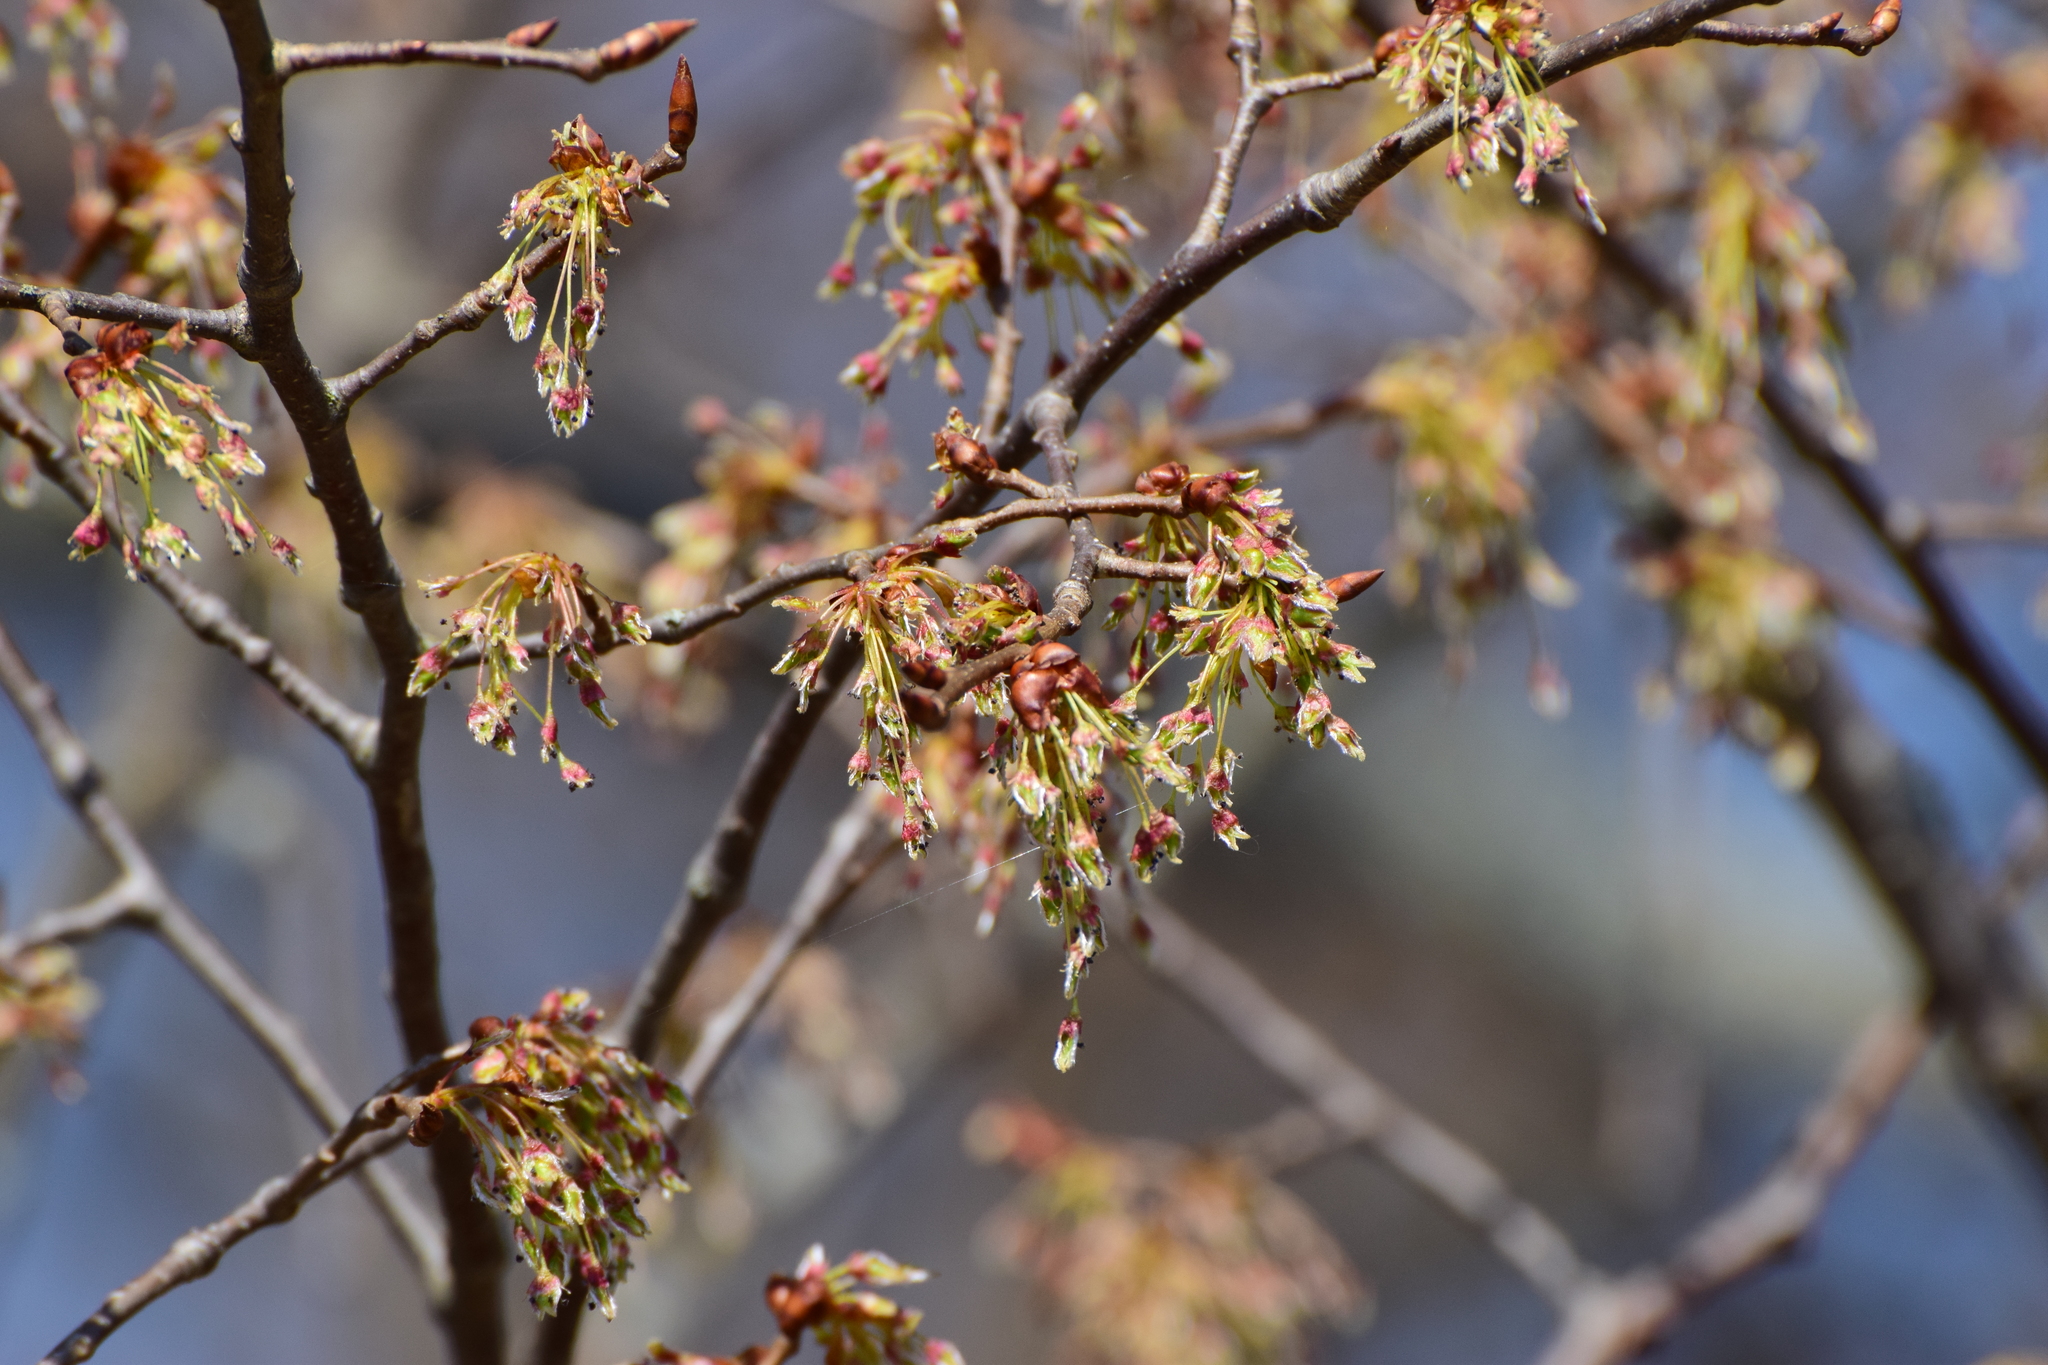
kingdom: Plantae
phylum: Tracheophyta
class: Magnoliopsida
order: Rosales
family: Ulmaceae
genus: Ulmus
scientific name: Ulmus laevis
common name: European white-elm
